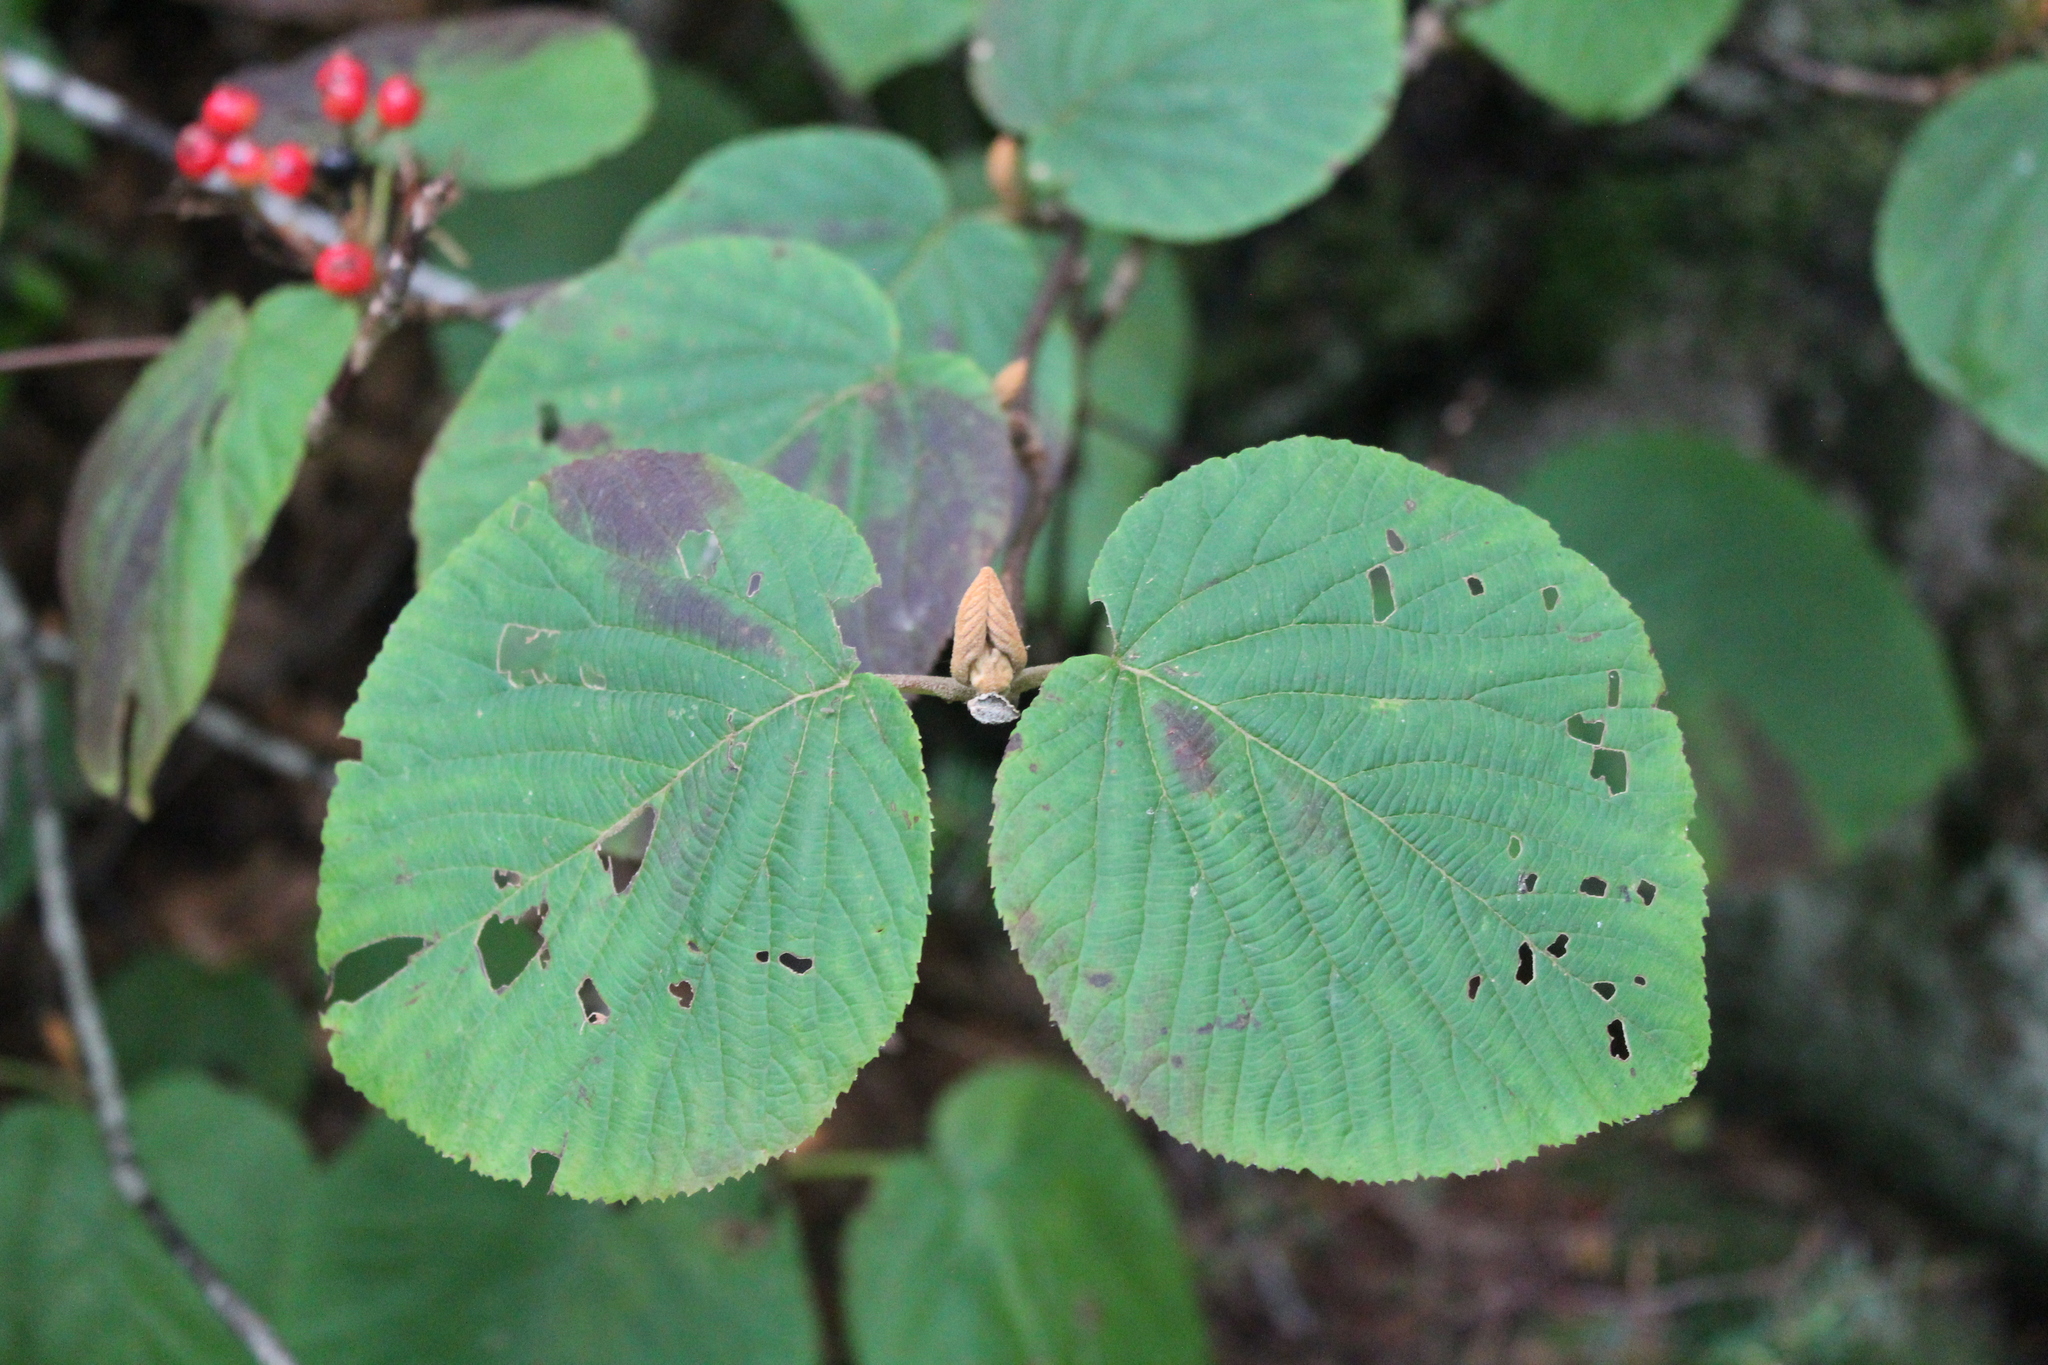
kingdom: Plantae
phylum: Tracheophyta
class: Magnoliopsida
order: Dipsacales
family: Viburnaceae
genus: Viburnum
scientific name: Viburnum lantanoides
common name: Hobblebush
